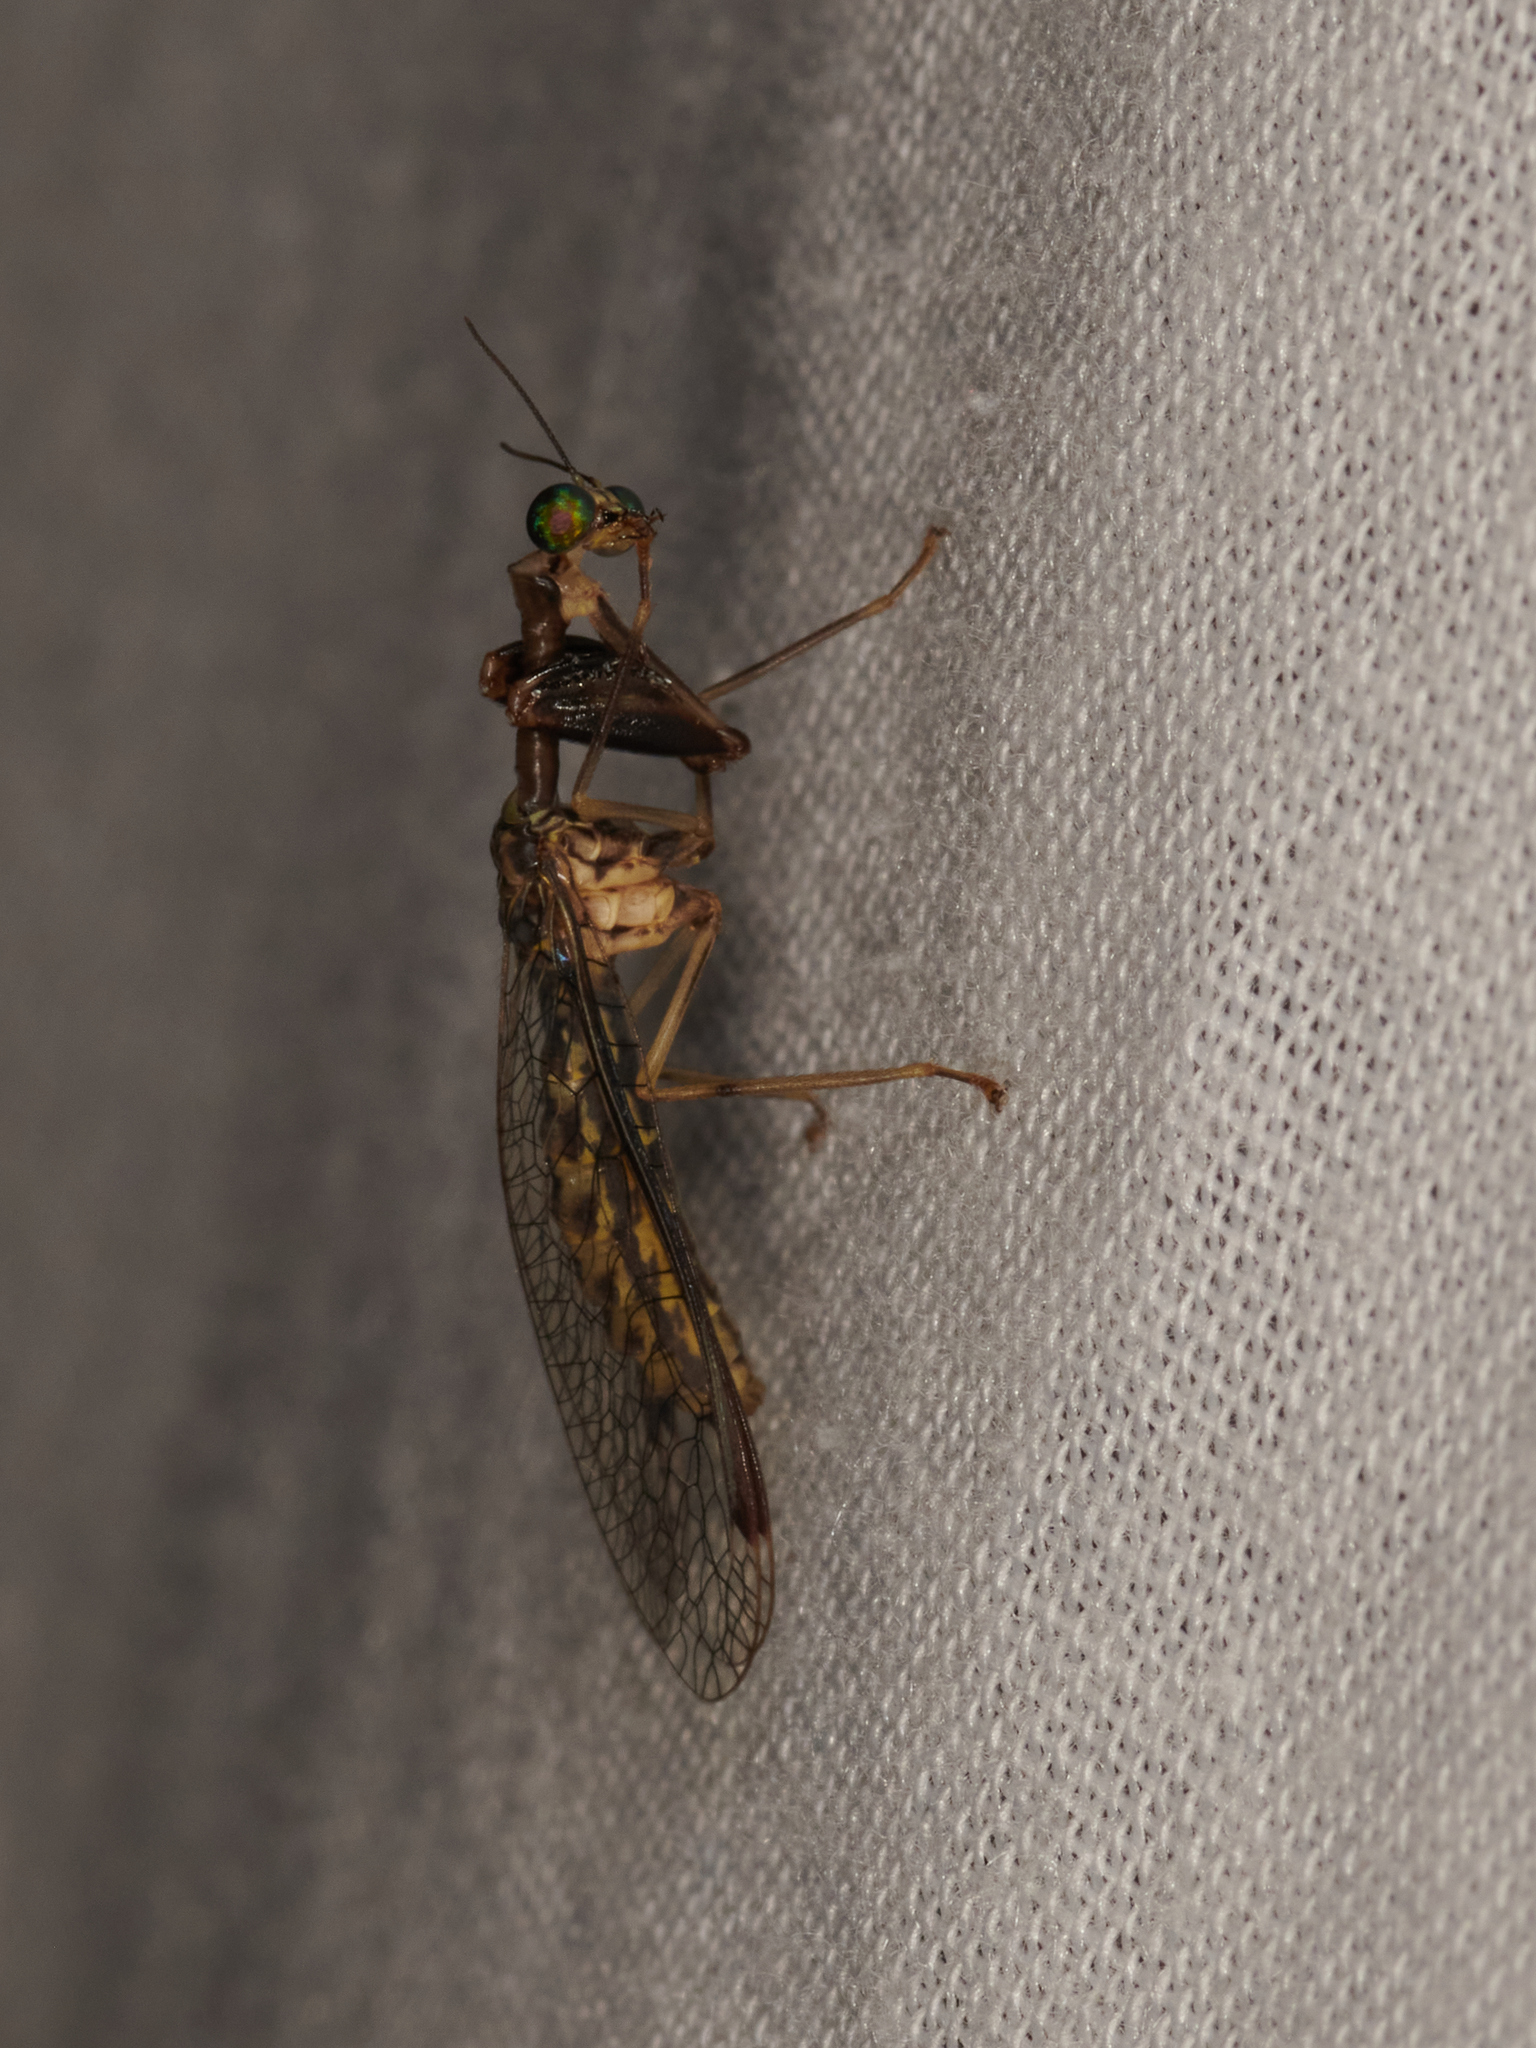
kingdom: Animalia
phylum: Arthropoda
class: Insecta
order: Neuroptera
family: Mantispidae
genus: Dicromantispa
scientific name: Dicromantispa sayi
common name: Say's mantidfly
